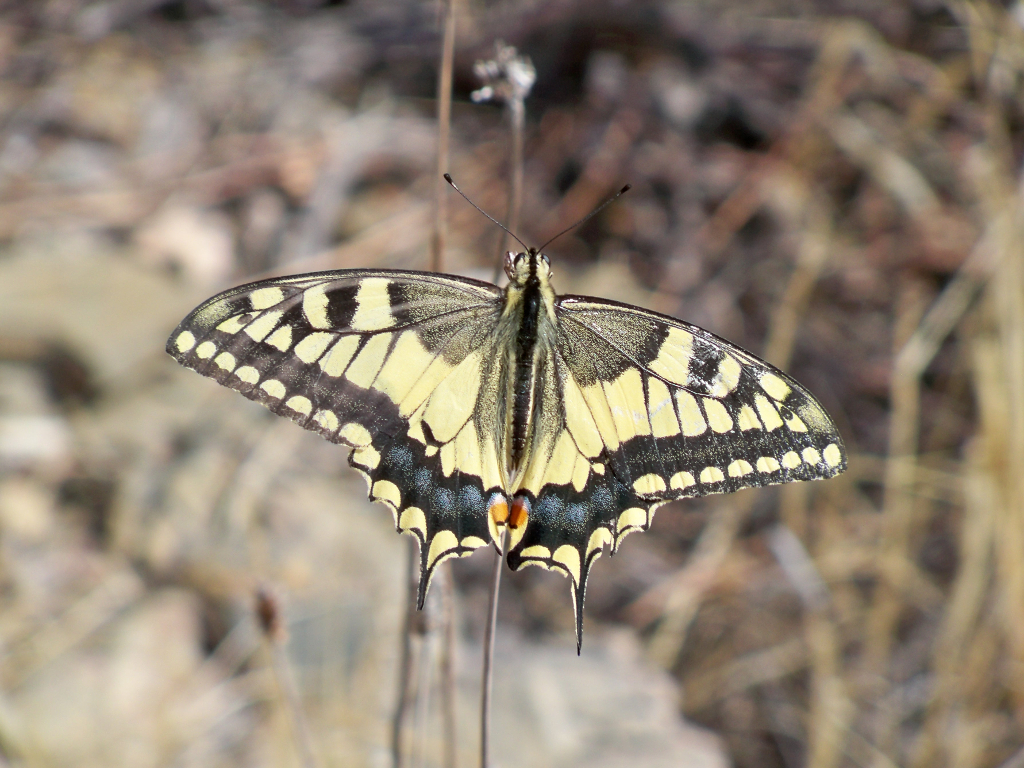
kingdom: Animalia
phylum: Arthropoda
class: Insecta
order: Lepidoptera
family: Papilionidae
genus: Papilio
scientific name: Papilio machaon
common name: Swallowtail
